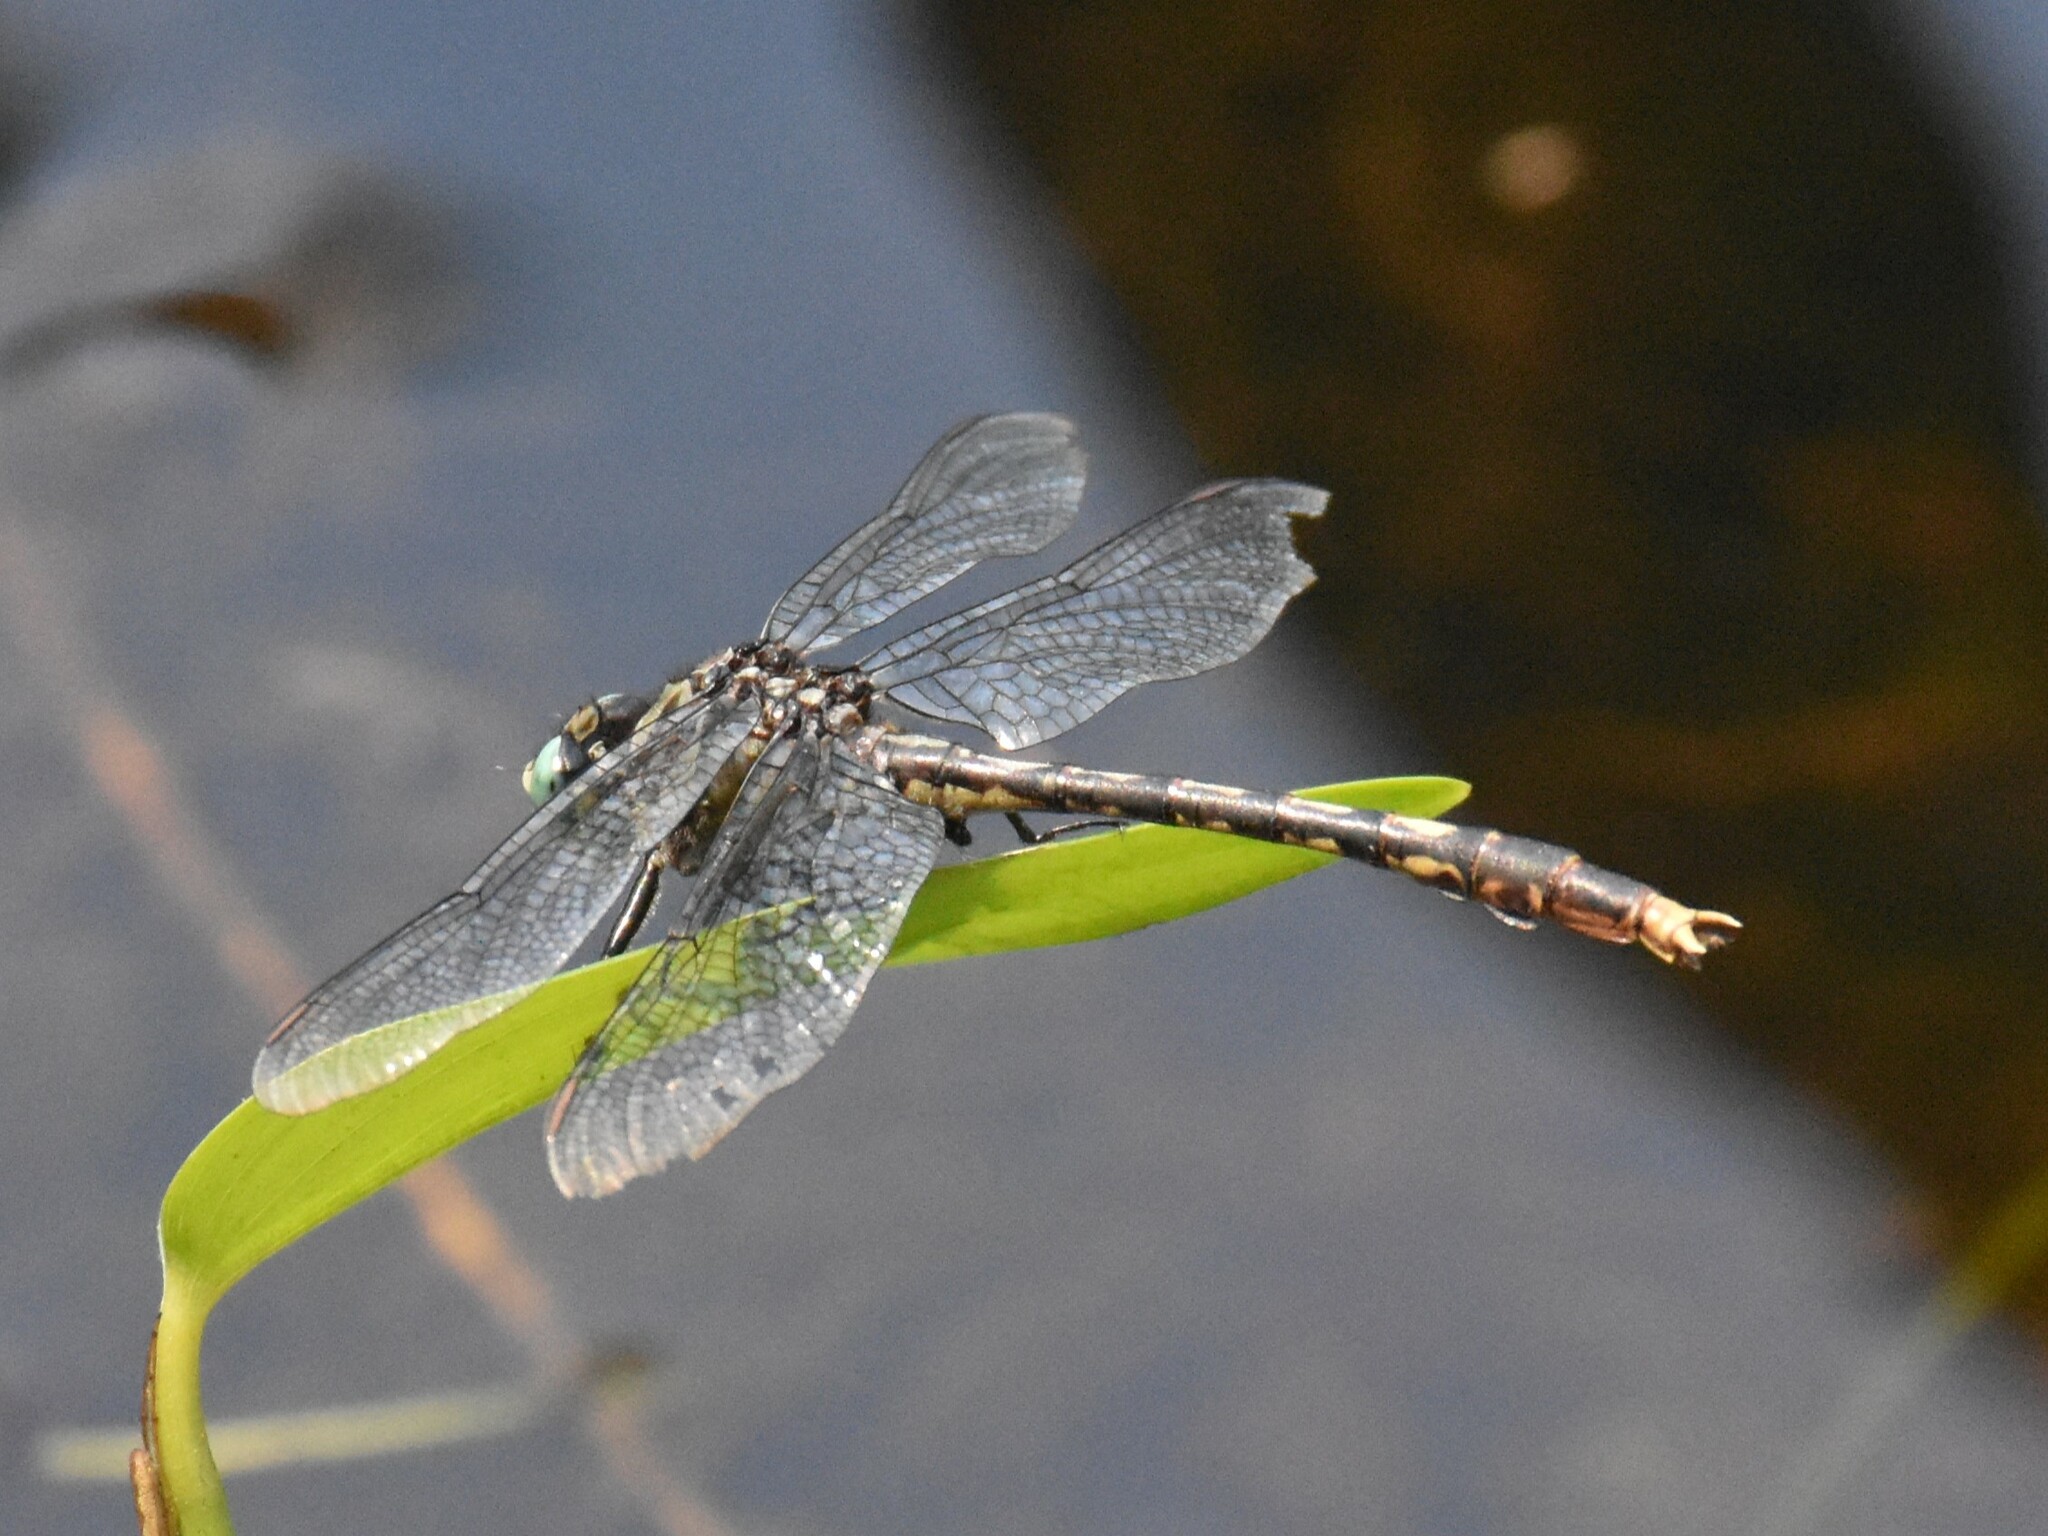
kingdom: Animalia
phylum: Arthropoda
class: Insecta
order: Odonata
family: Gomphidae
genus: Arigomphus
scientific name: Arigomphus villosipes
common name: Unicorn clubtail
